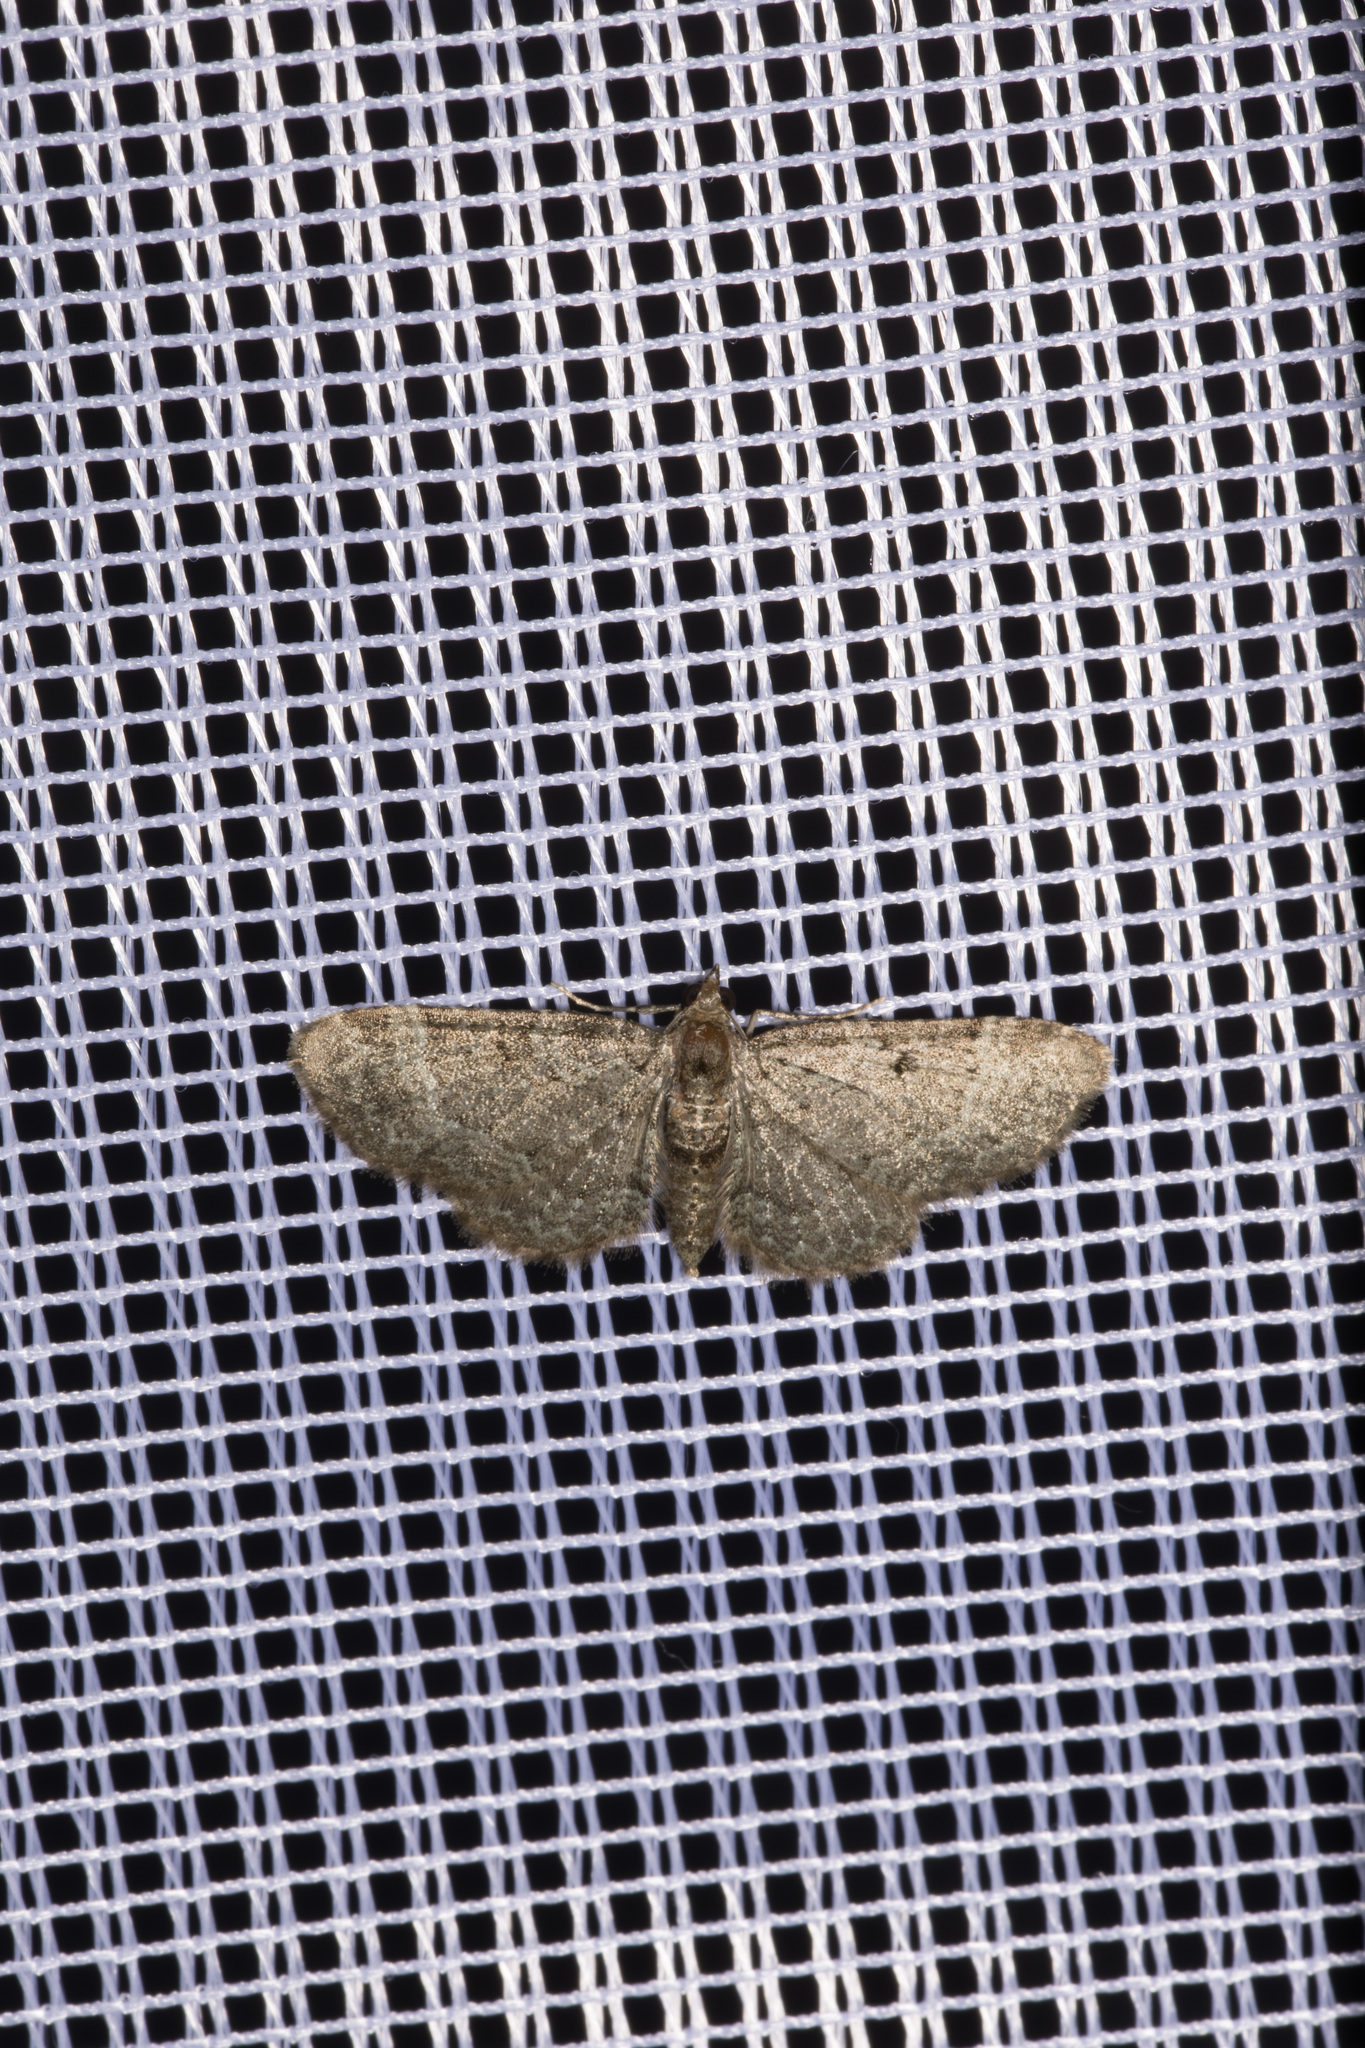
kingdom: Animalia
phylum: Arthropoda
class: Insecta
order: Lepidoptera
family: Geometridae
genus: Pasiphila
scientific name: Pasiphila chloerata
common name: Sloe pug
